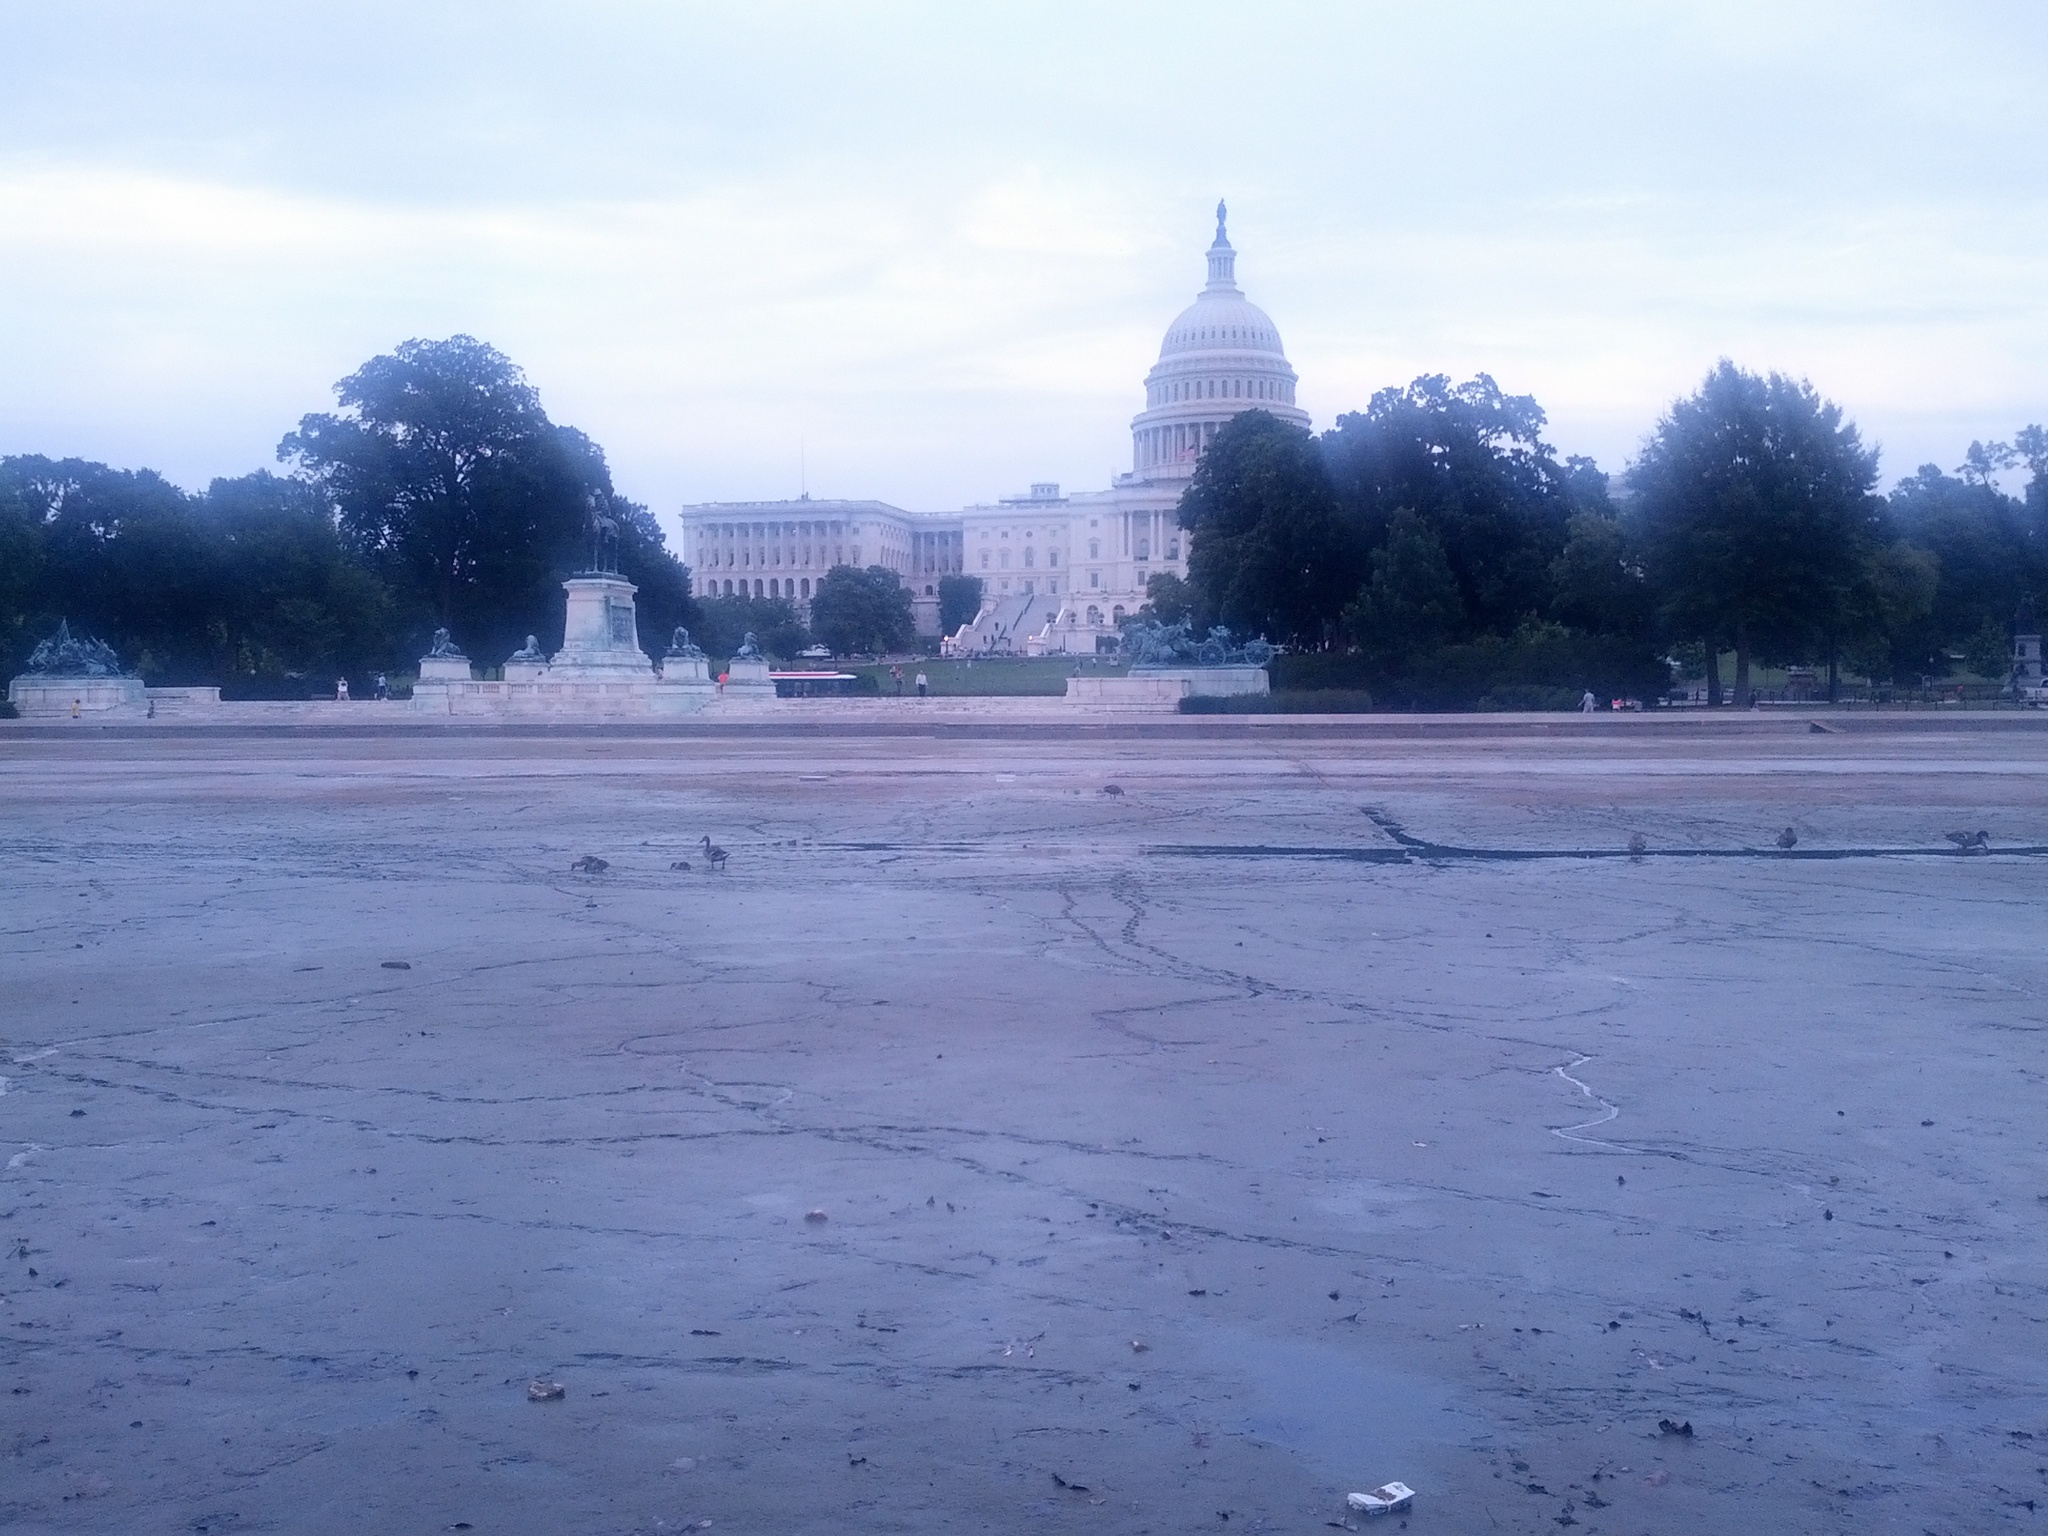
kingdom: Animalia
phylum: Chordata
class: Aves
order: Anseriformes
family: Anatidae
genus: Anas
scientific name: Anas platyrhynchos
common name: Mallard
